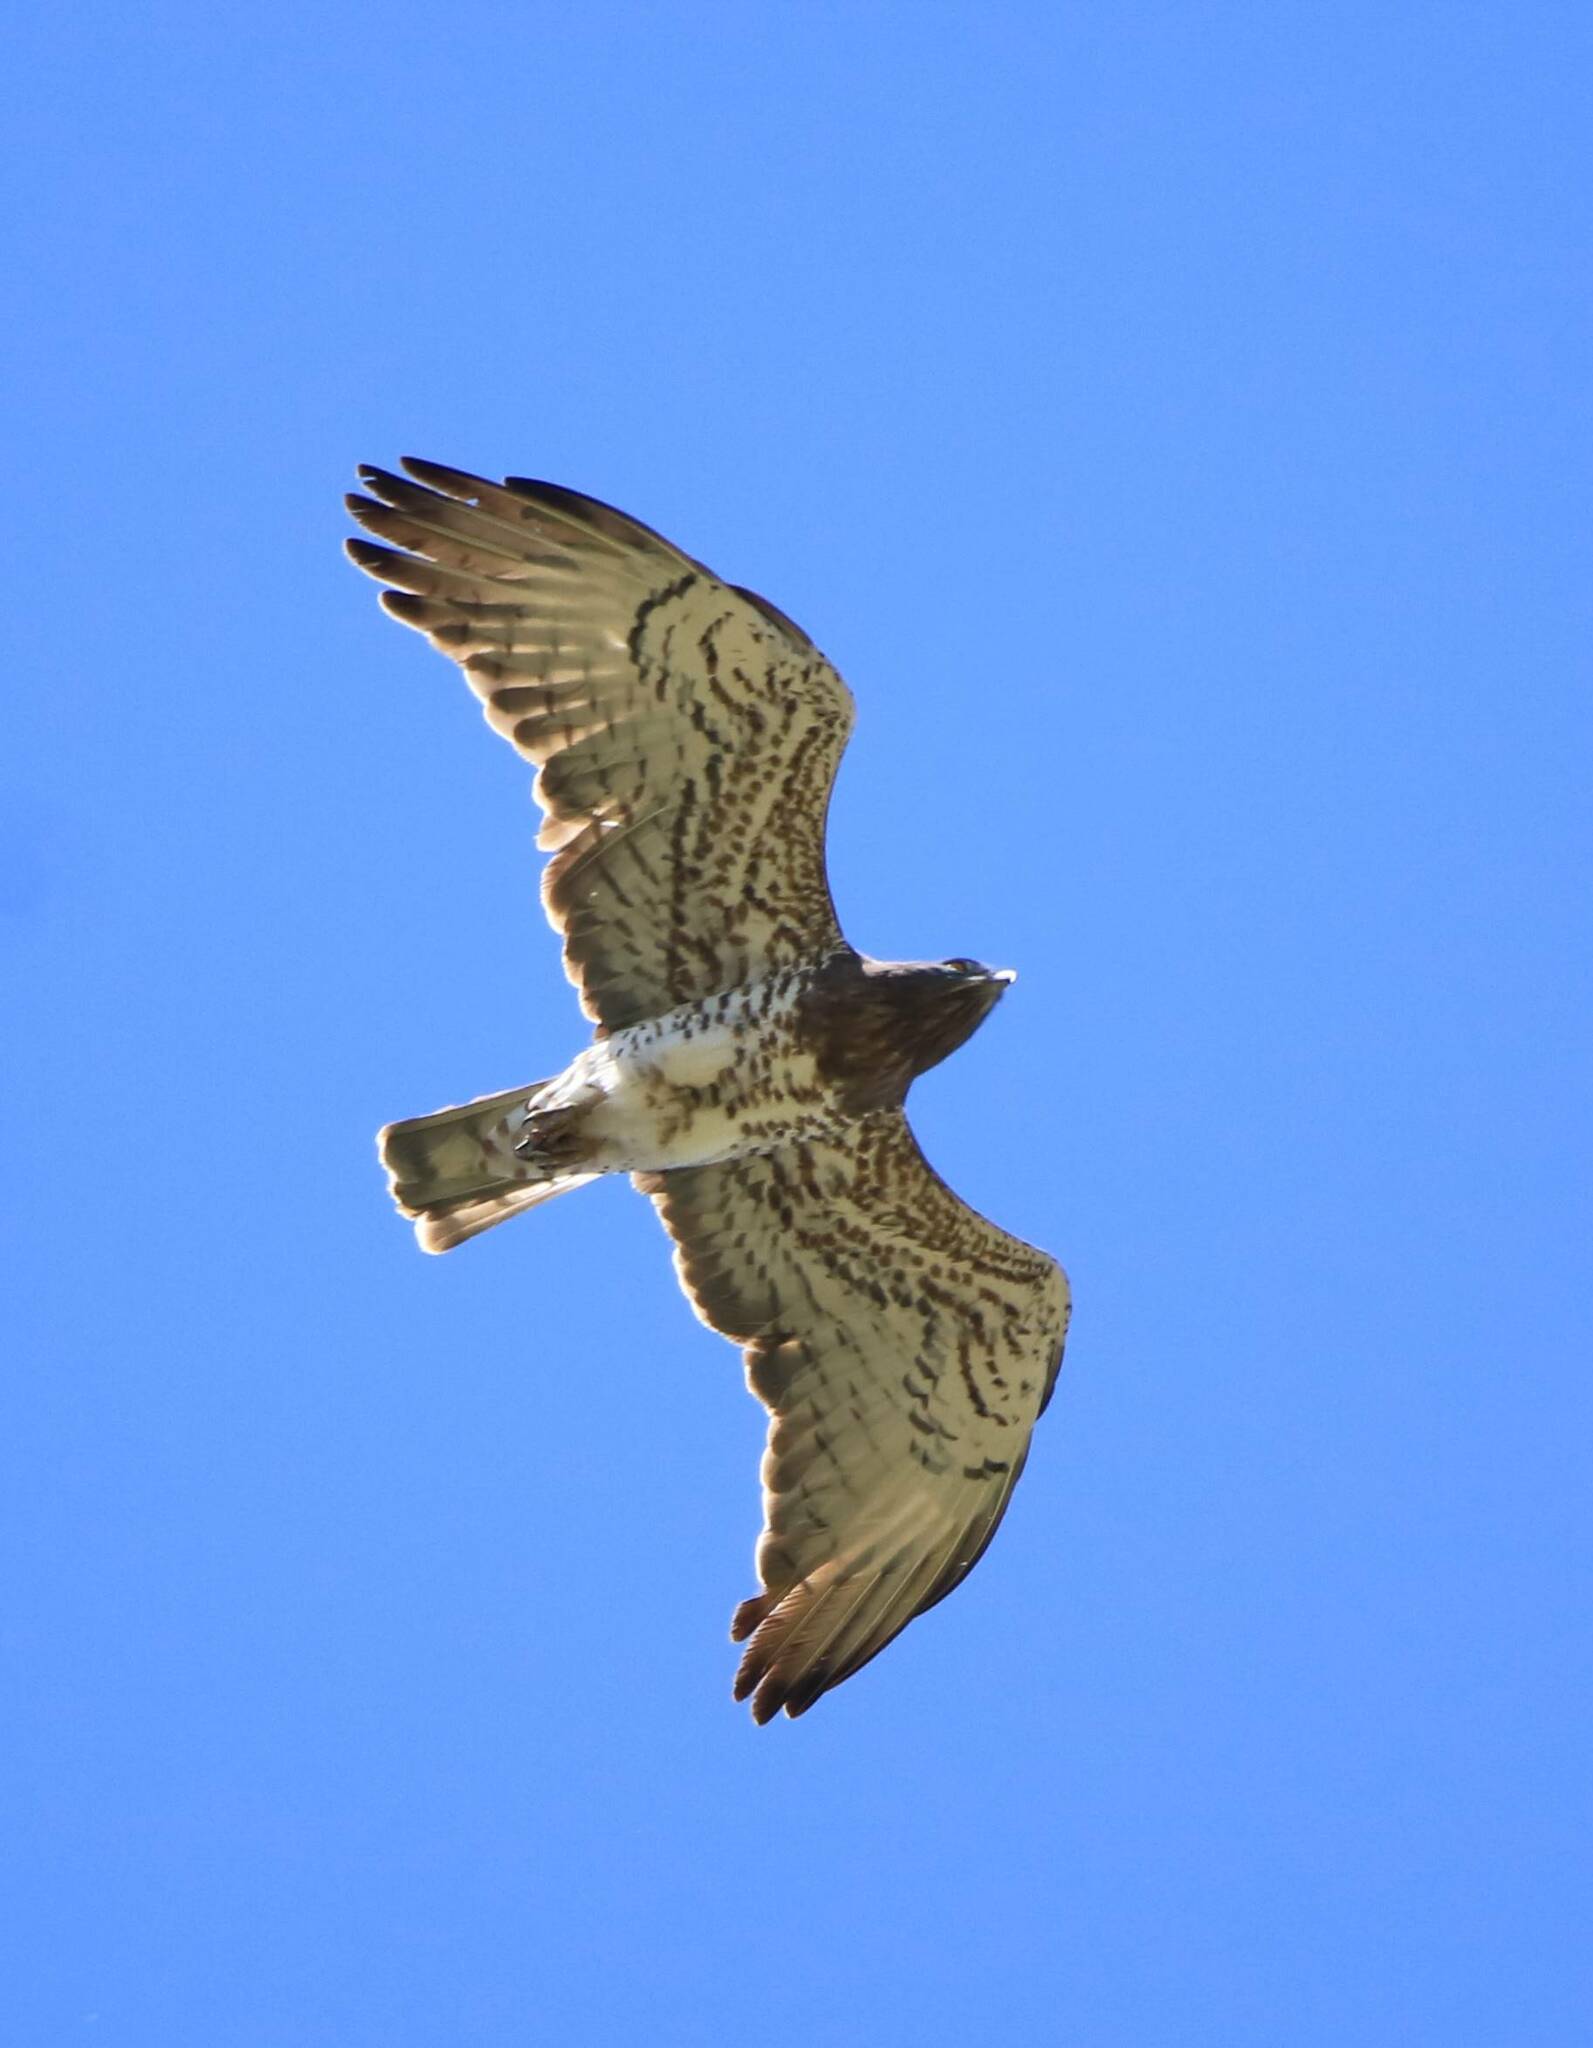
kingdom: Animalia
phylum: Chordata
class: Aves
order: Accipitriformes
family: Accipitridae
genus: Circaetus
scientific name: Circaetus gallicus
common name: Short-toed snake eagle
